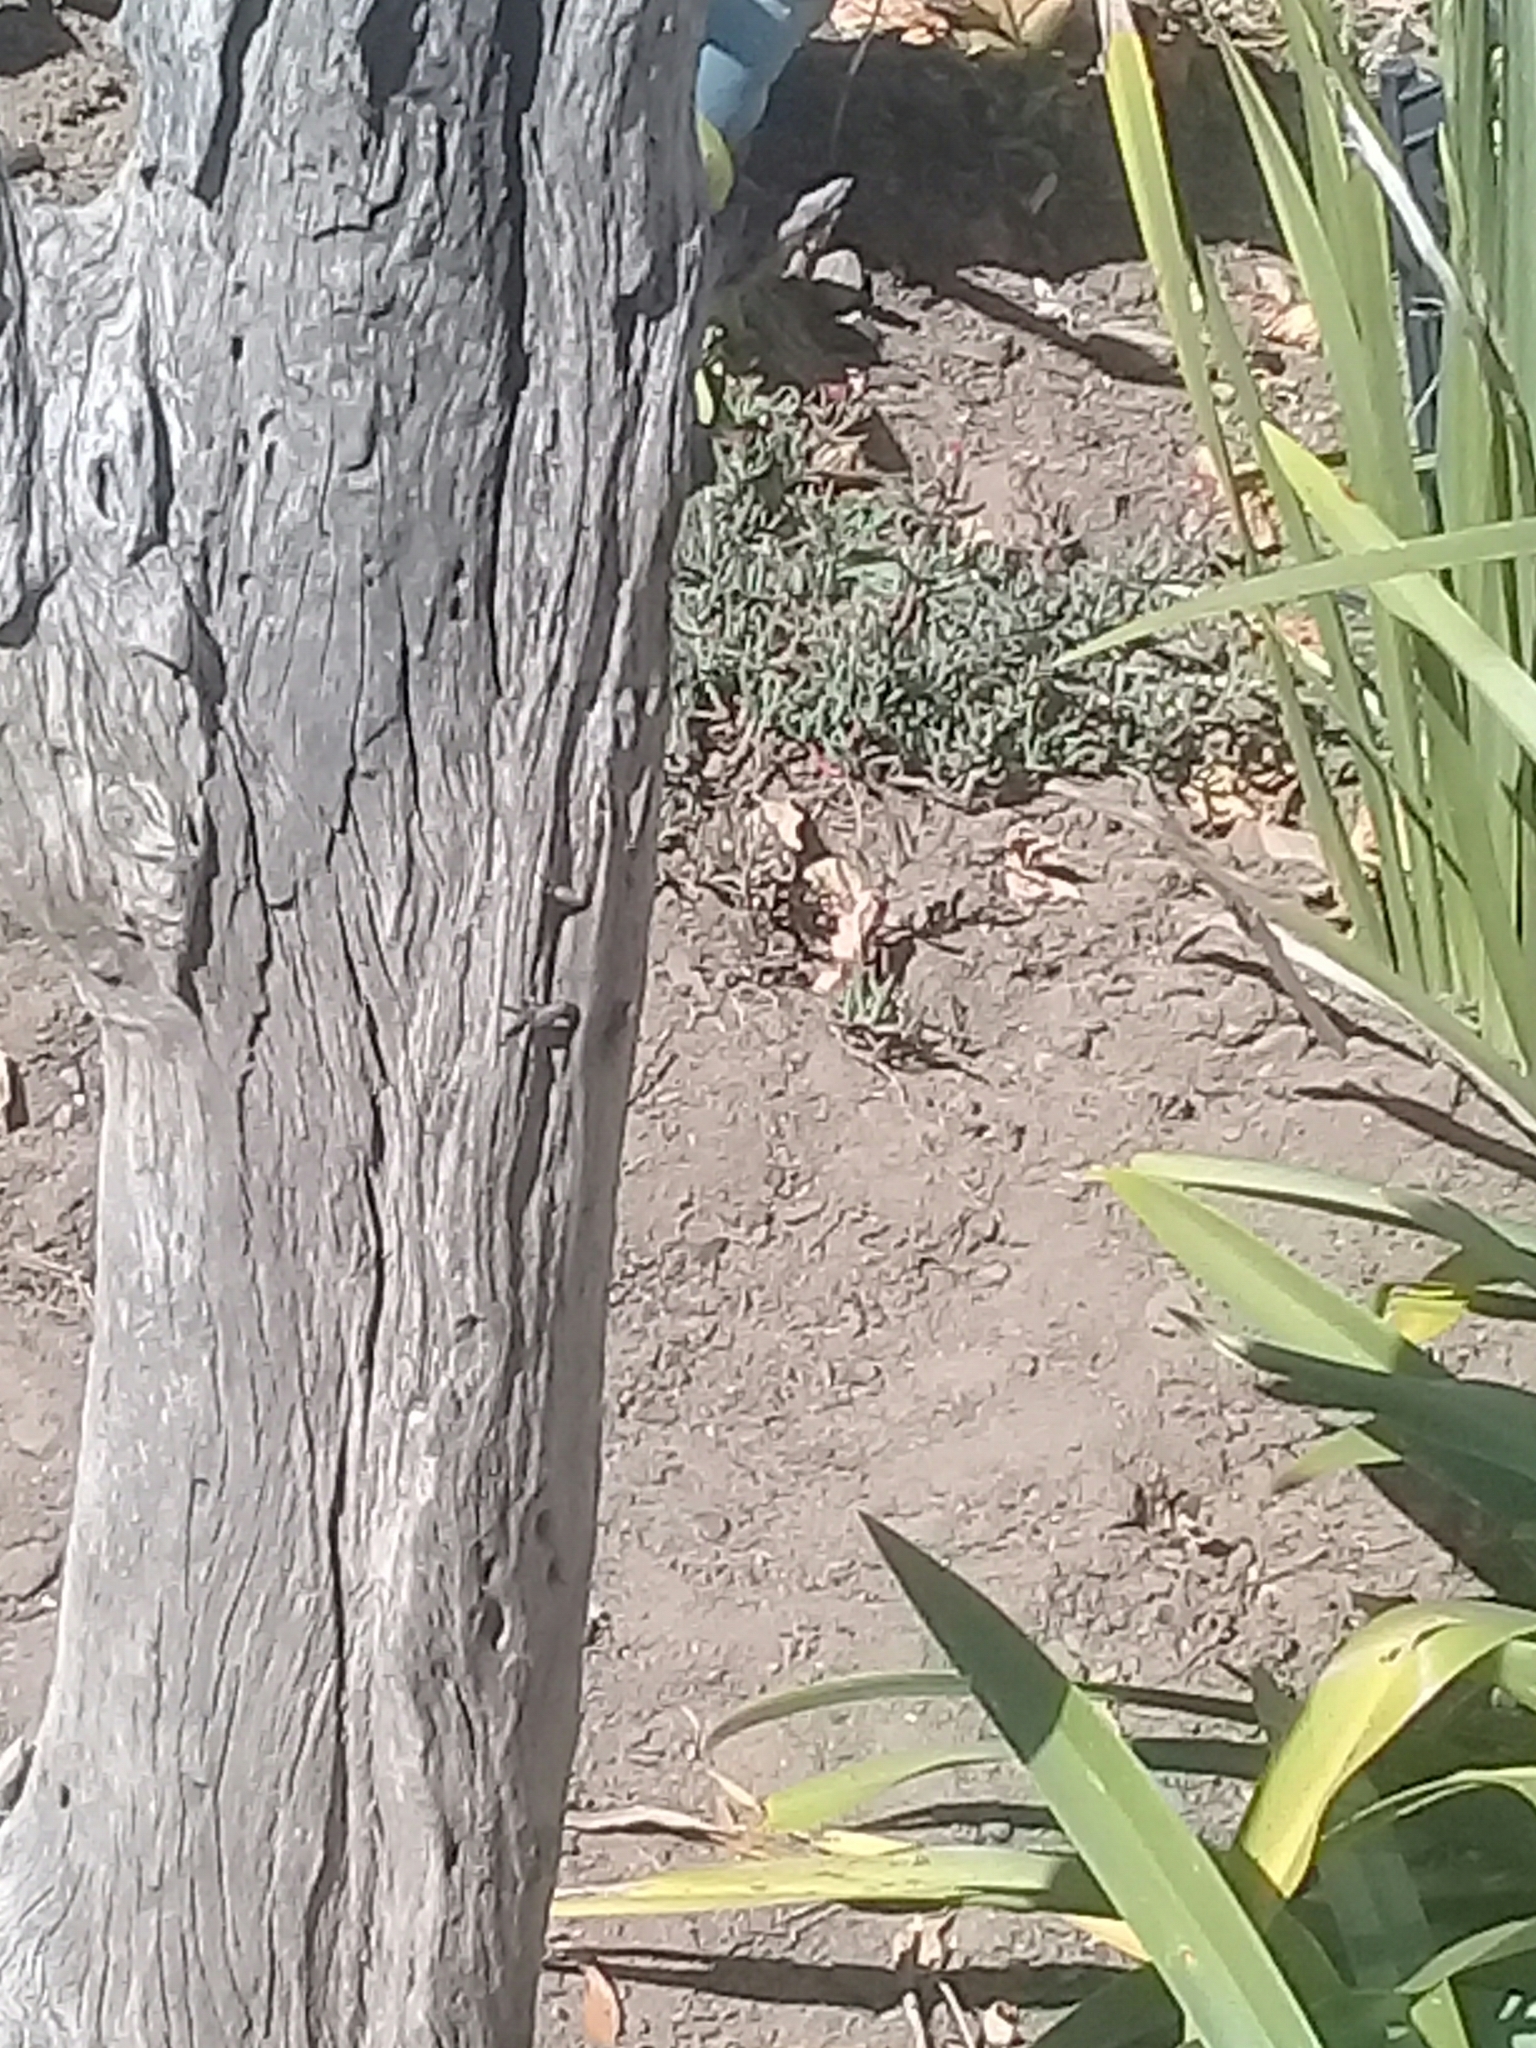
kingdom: Animalia
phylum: Chordata
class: Squamata
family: Scincidae
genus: Trachylepis
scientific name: Trachylepis punctatissima
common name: Montane speckled skink
